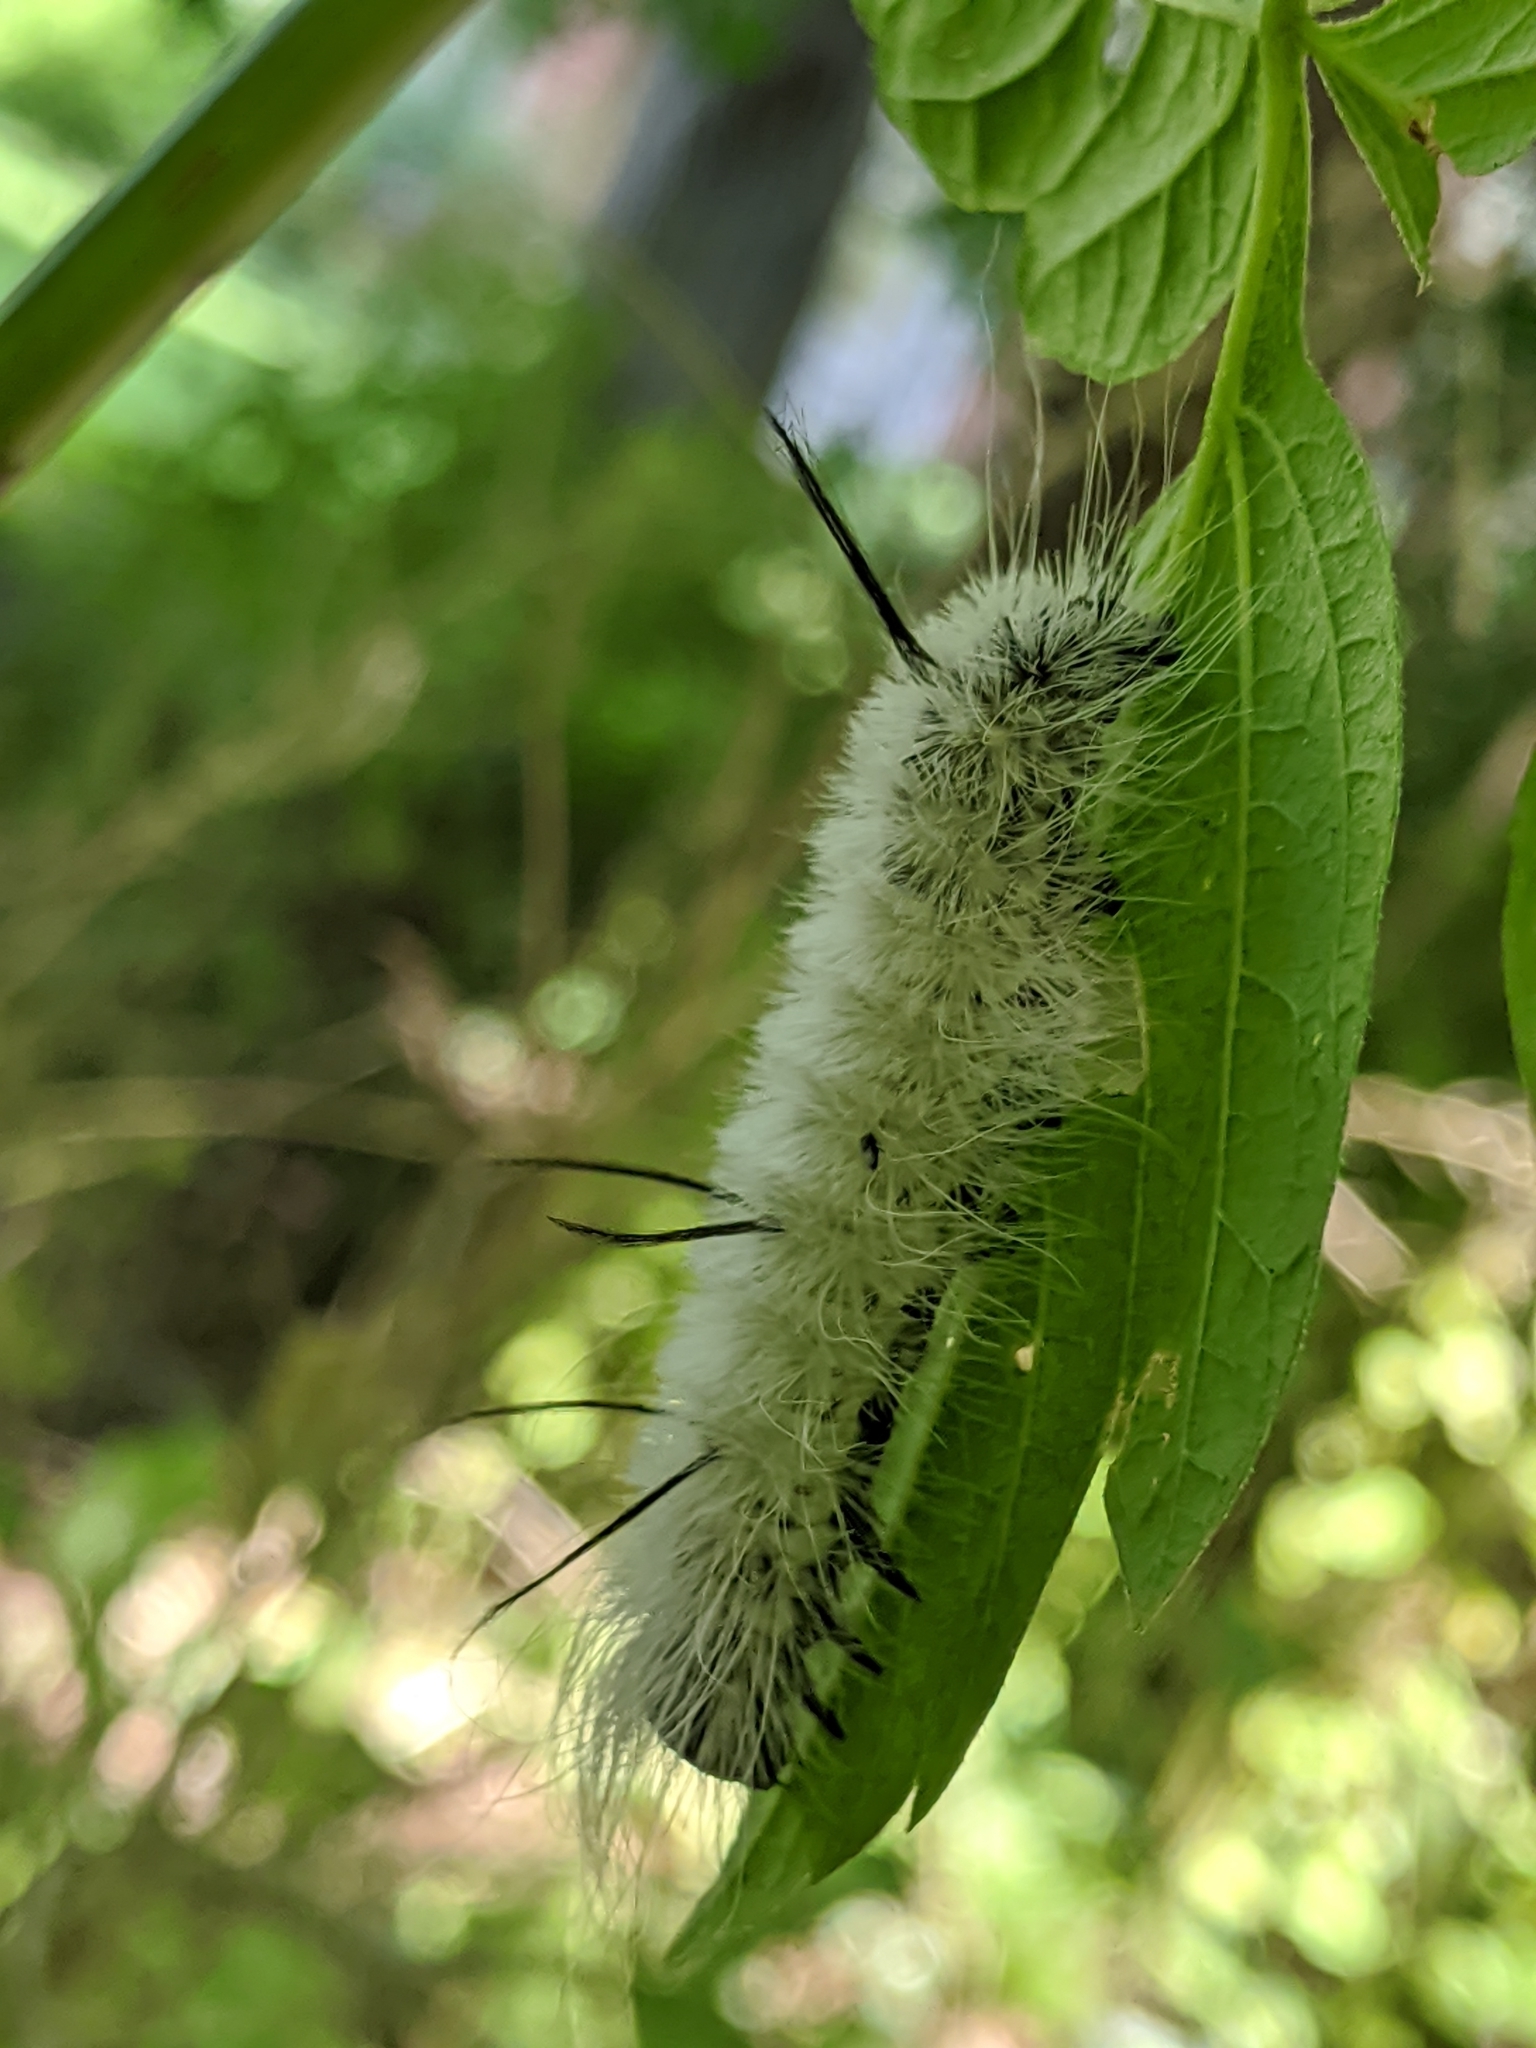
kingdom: Animalia
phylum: Arthropoda
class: Insecta
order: Lepidoptera
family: Noctuidae
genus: Acronicta
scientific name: Acronicta americana
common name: American dagger
